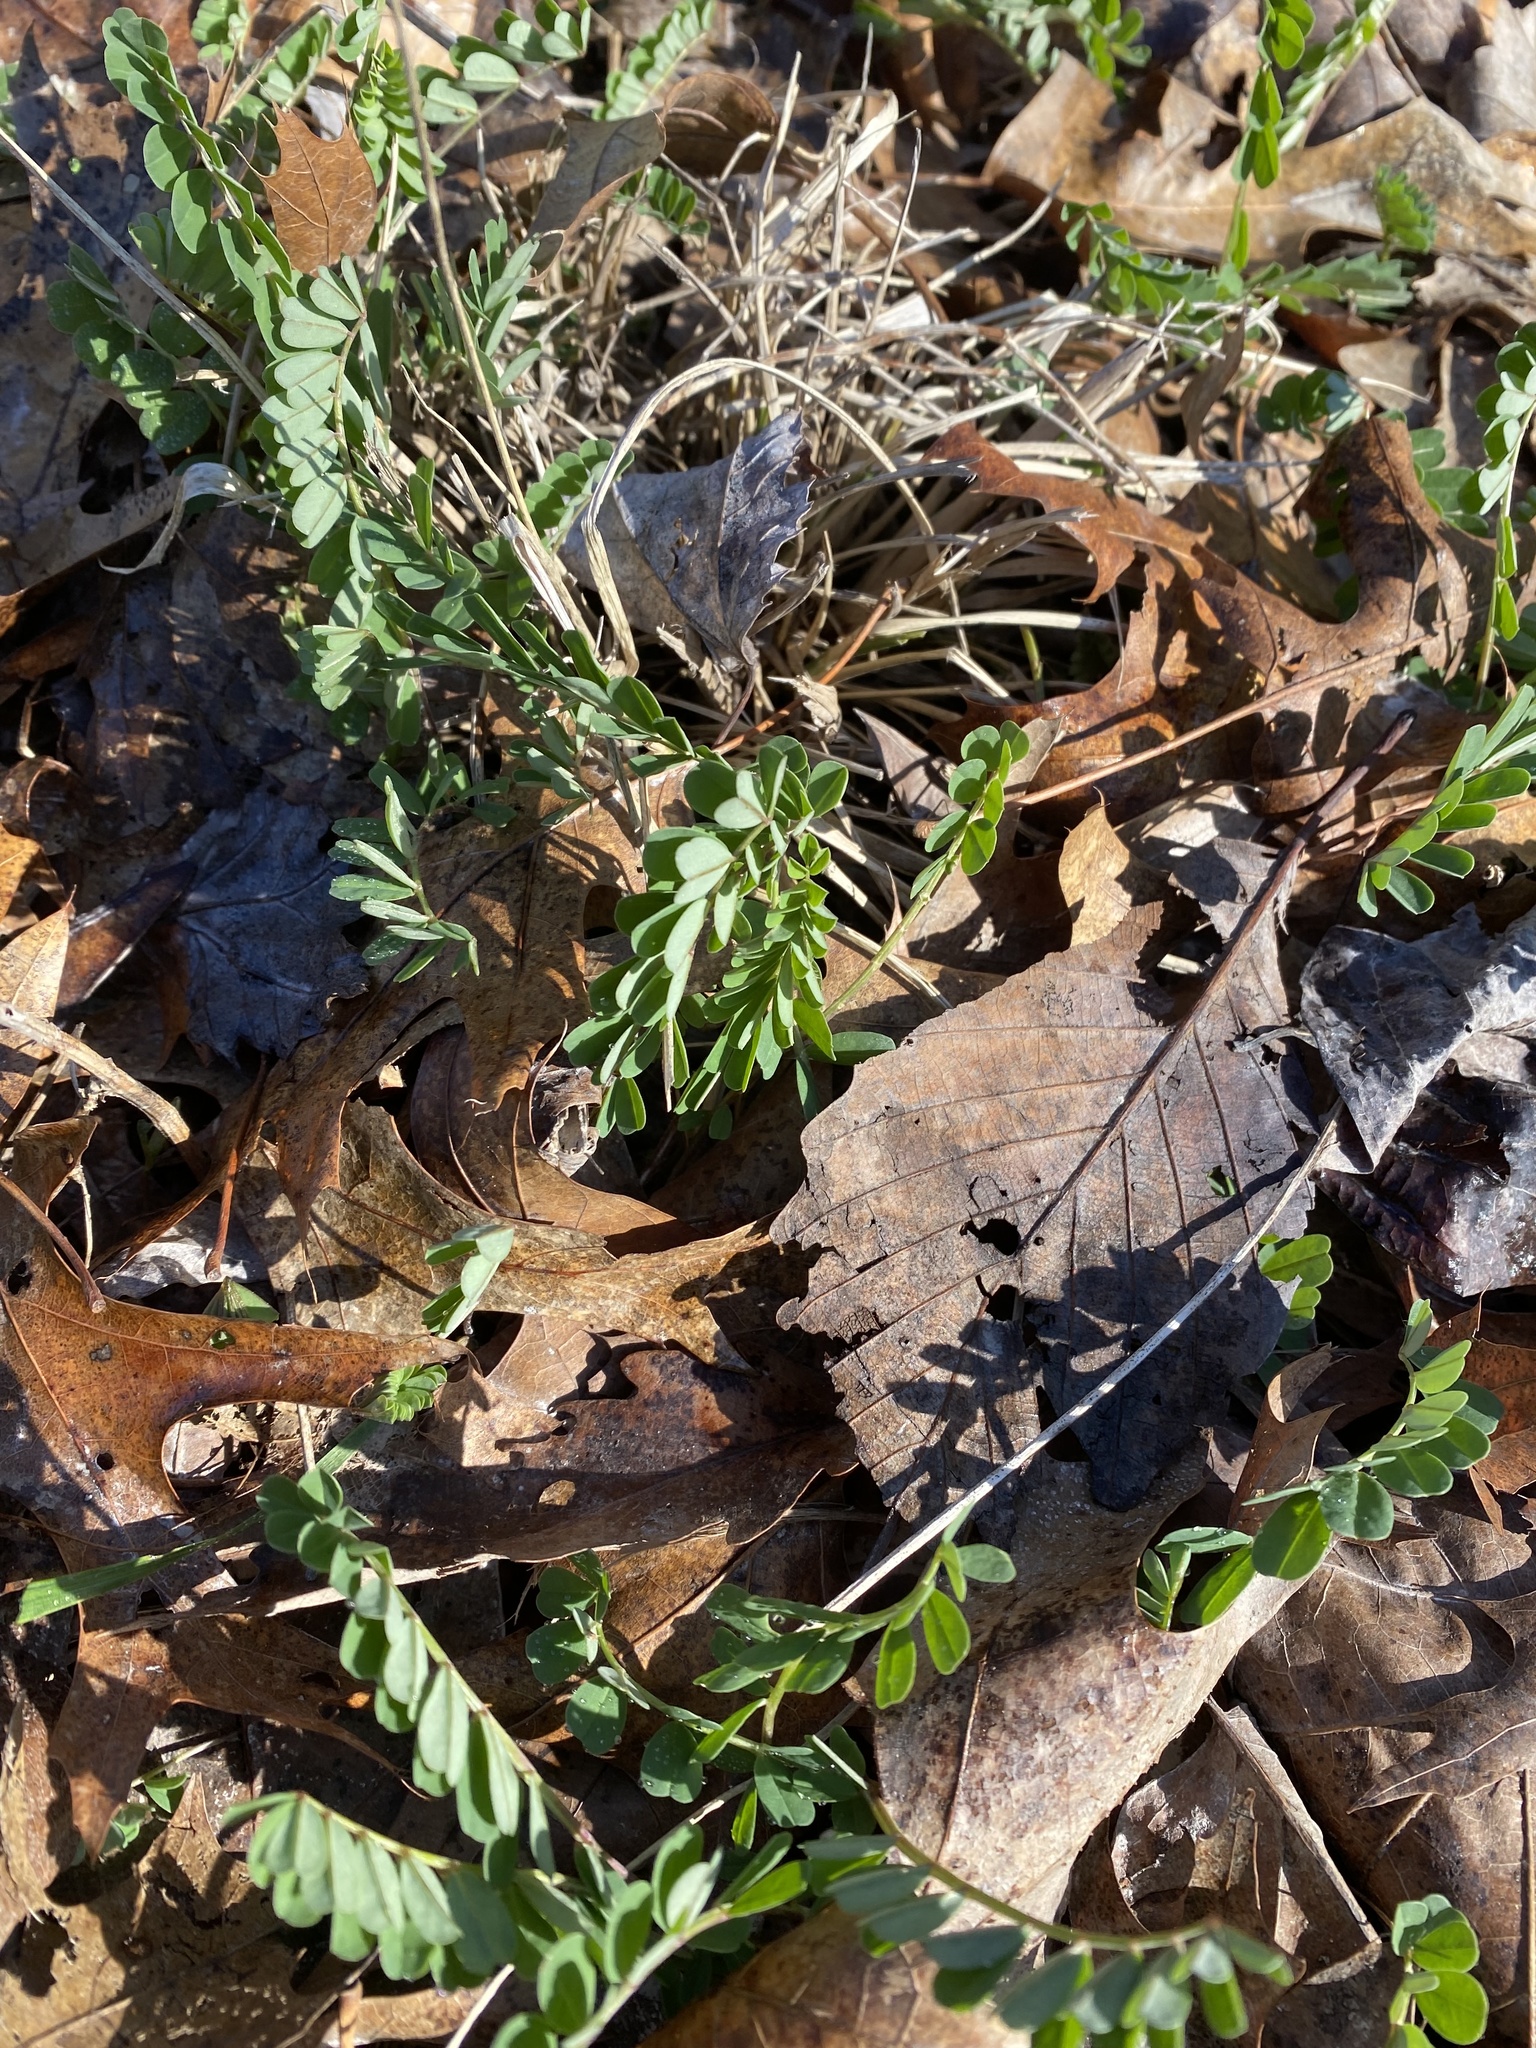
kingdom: Plantae
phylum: Tracheophyta
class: Magnoliopsida
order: Fabales
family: Fabaceae
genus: Vicia
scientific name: Vicia caroliniana
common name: Carolina vetch
